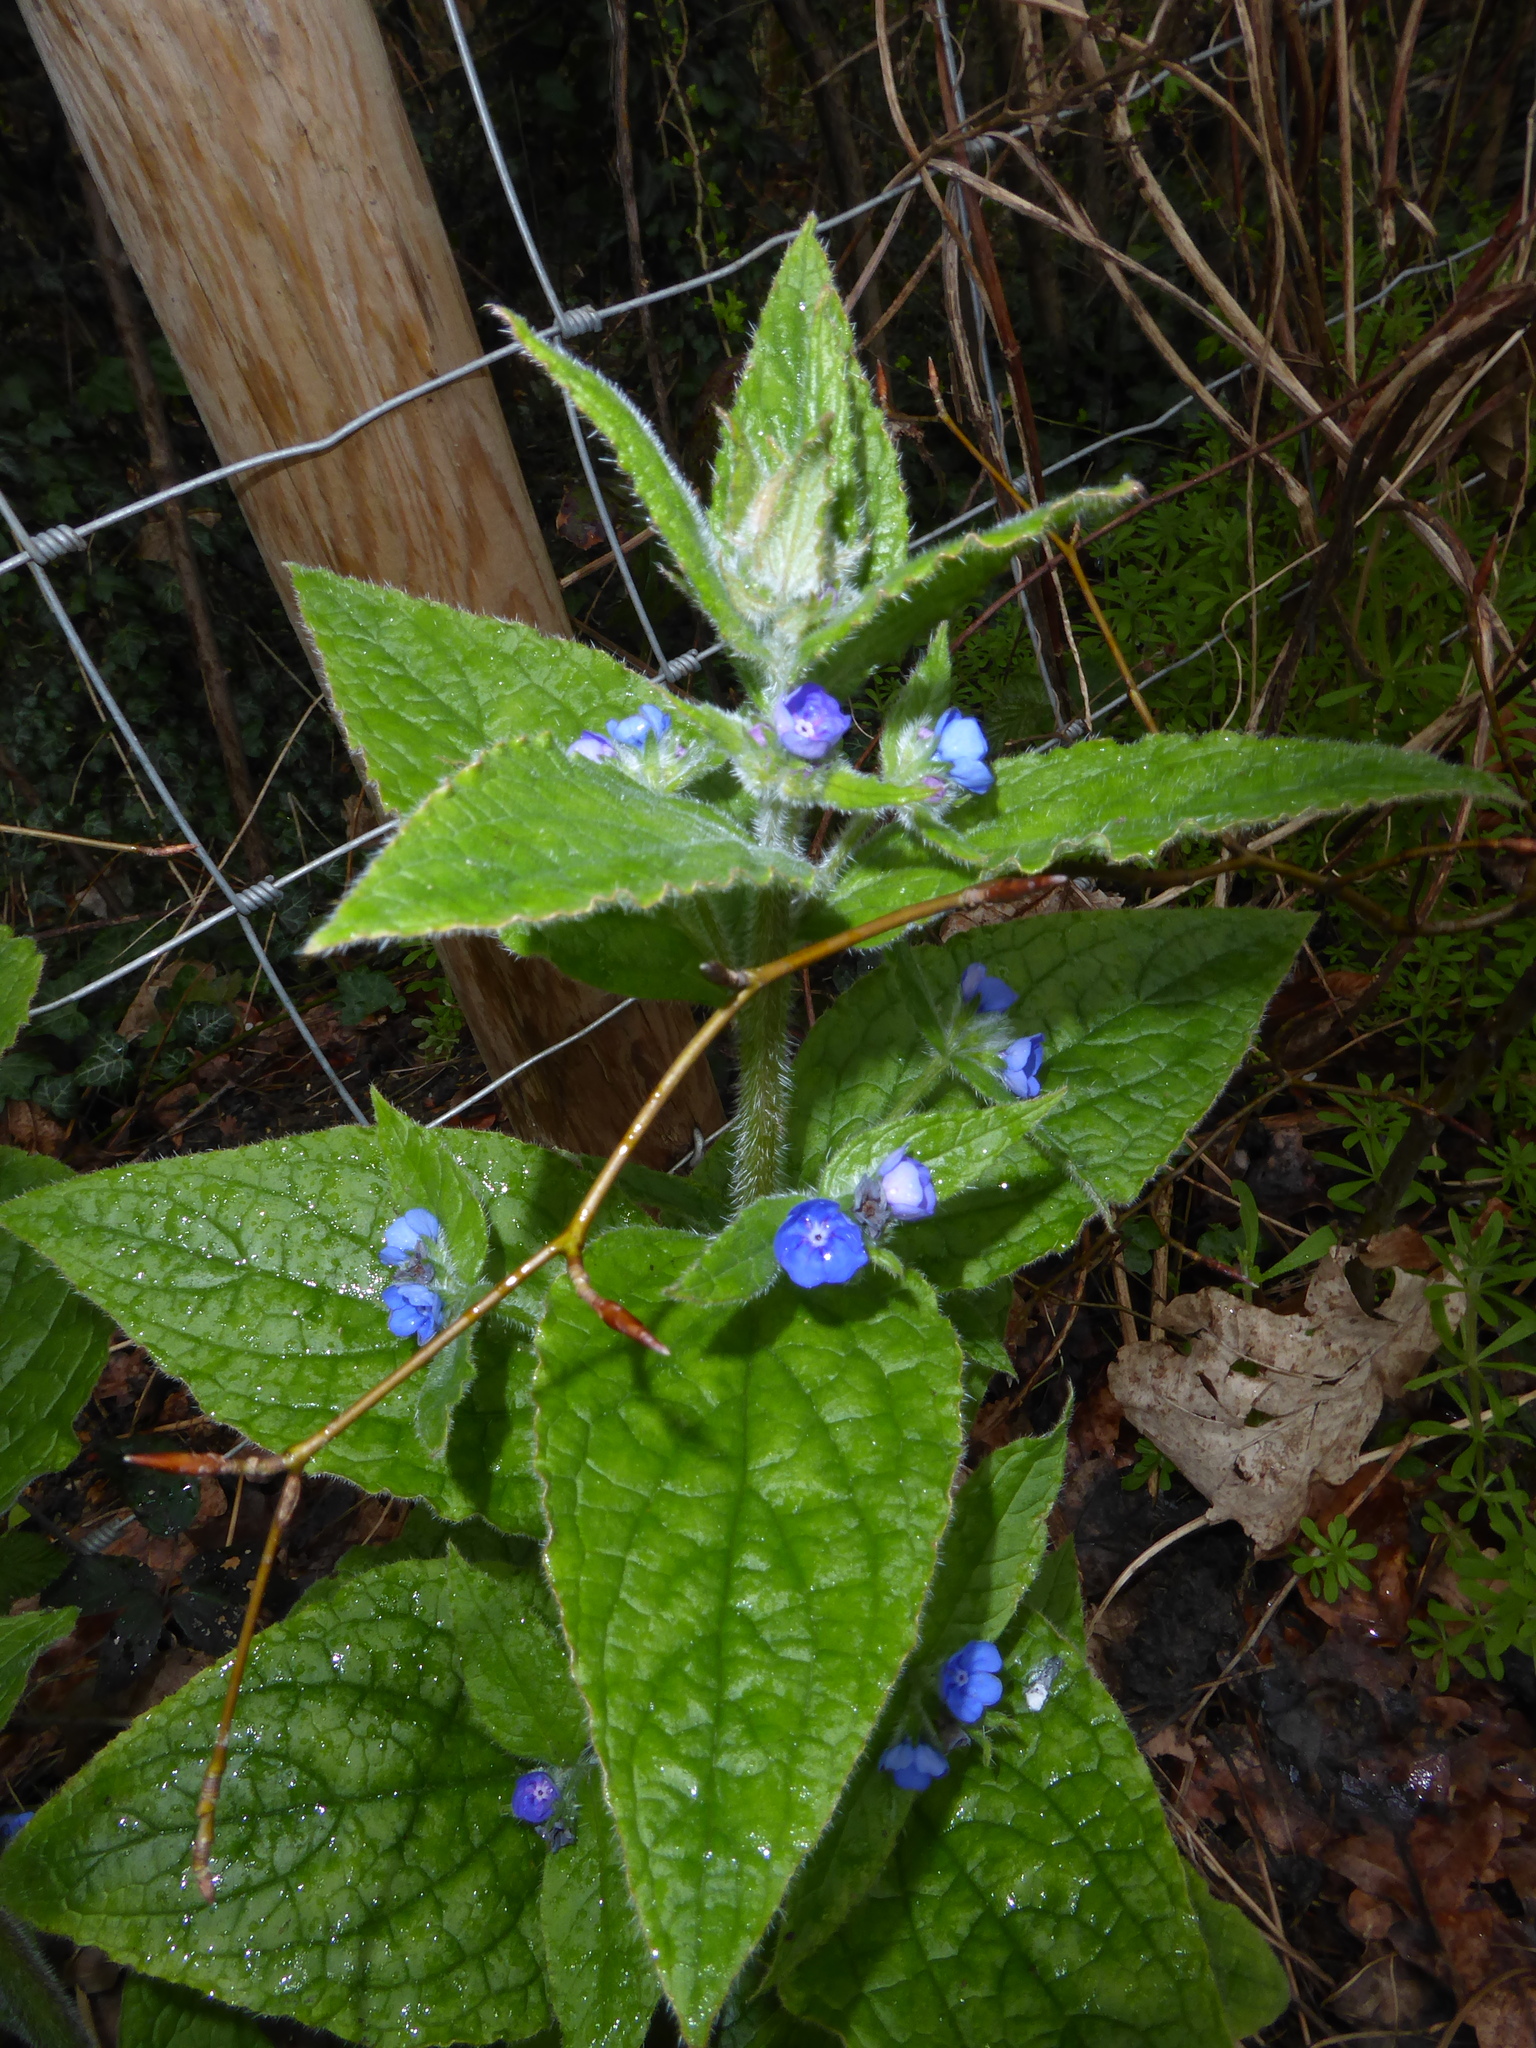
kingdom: Plantae
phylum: Tracheophyta
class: Magnoliopsida
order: Boraginales
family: Boraginaceae
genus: Pentaglottis
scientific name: Pentaglottis sempervirens
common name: Green alkanet
